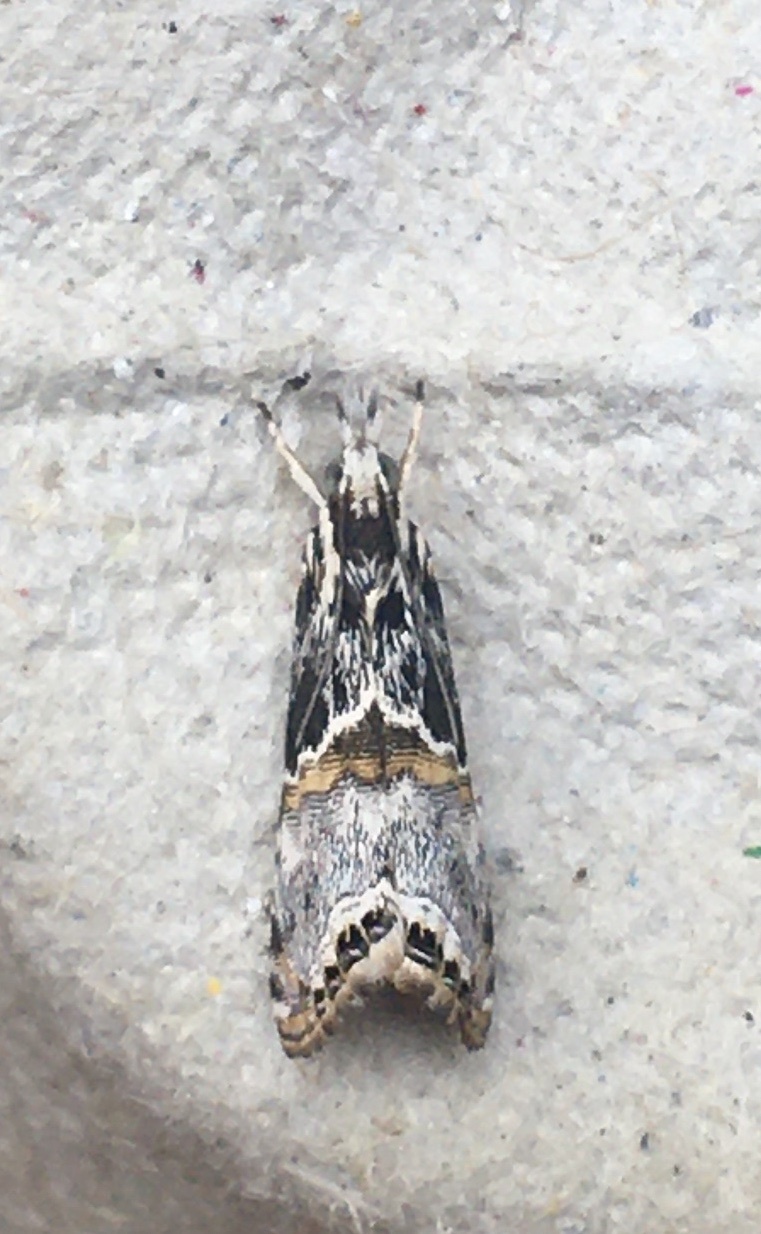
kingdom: Animalia
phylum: Arthropoda
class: Insecta
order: Lepidoptera
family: Crambidae
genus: Euchromius
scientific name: Euchromius nigrobasalis
